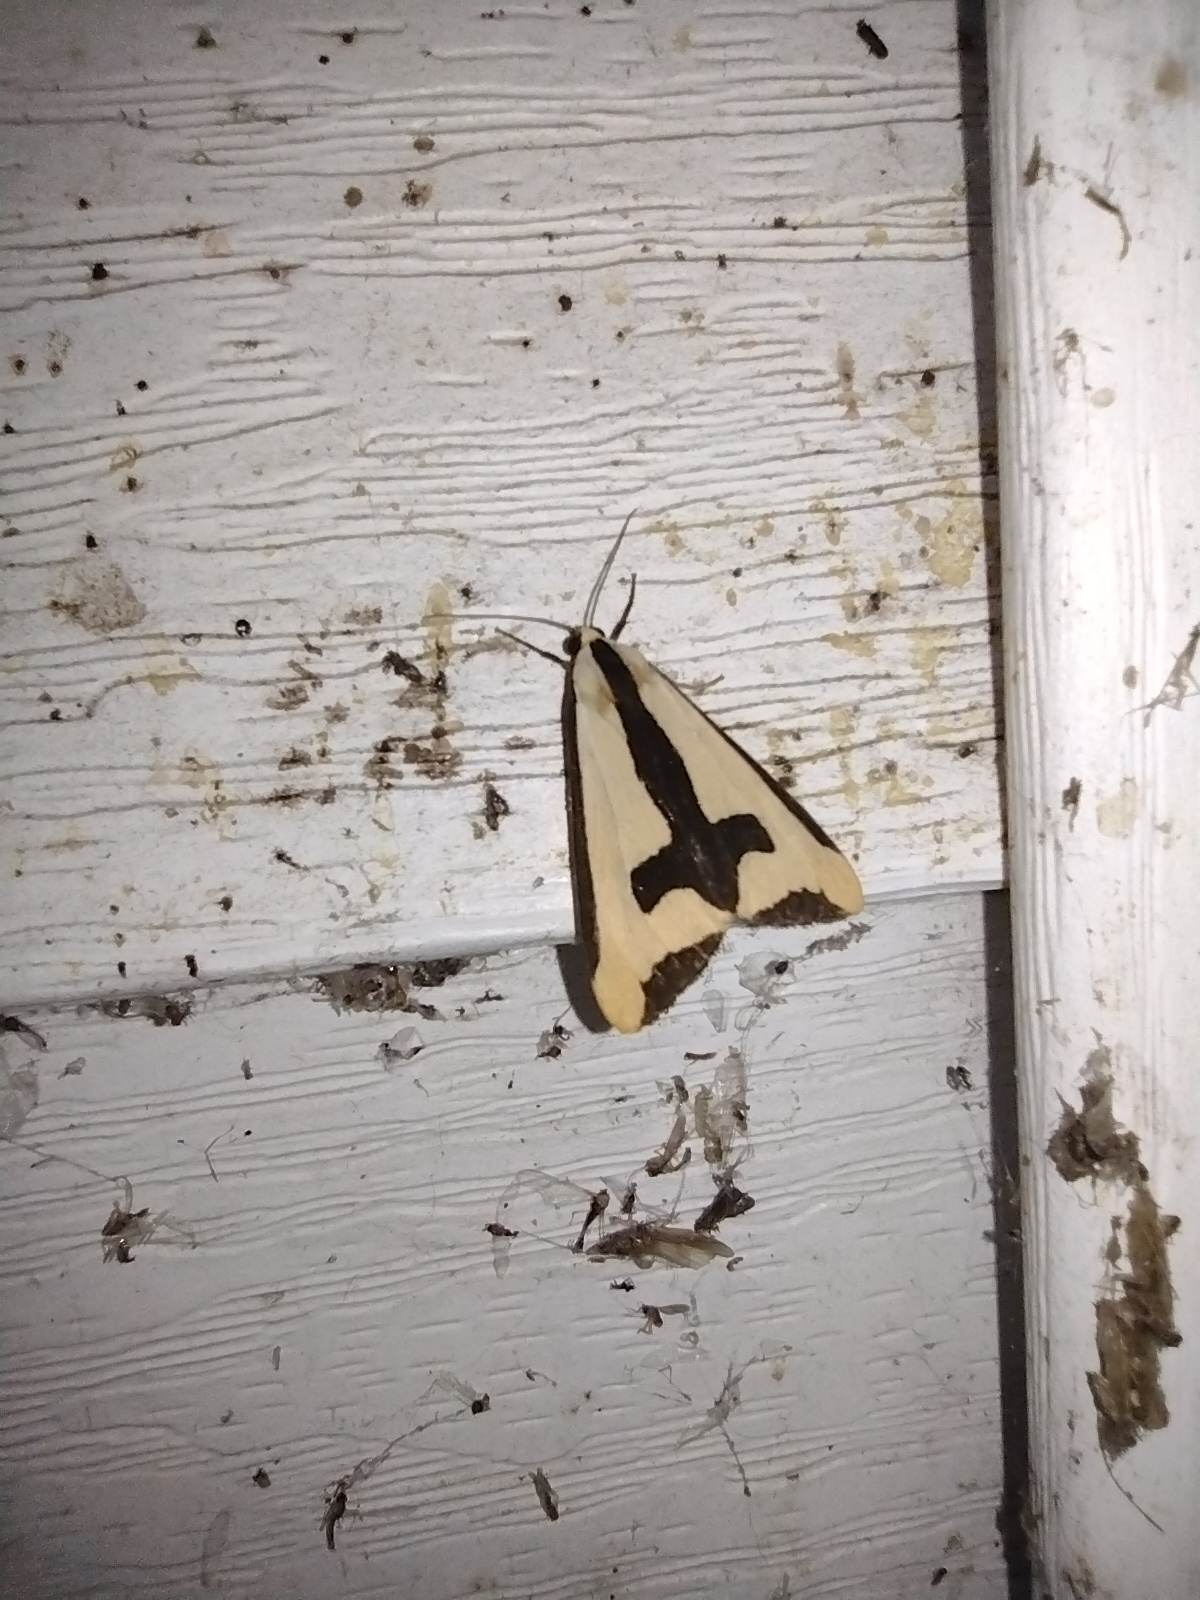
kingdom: Animalia
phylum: Arthropoda
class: Insecta
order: Lepidoptera
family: Erebidae
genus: Haploa
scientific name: Haploa clymene
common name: Clymene moth
